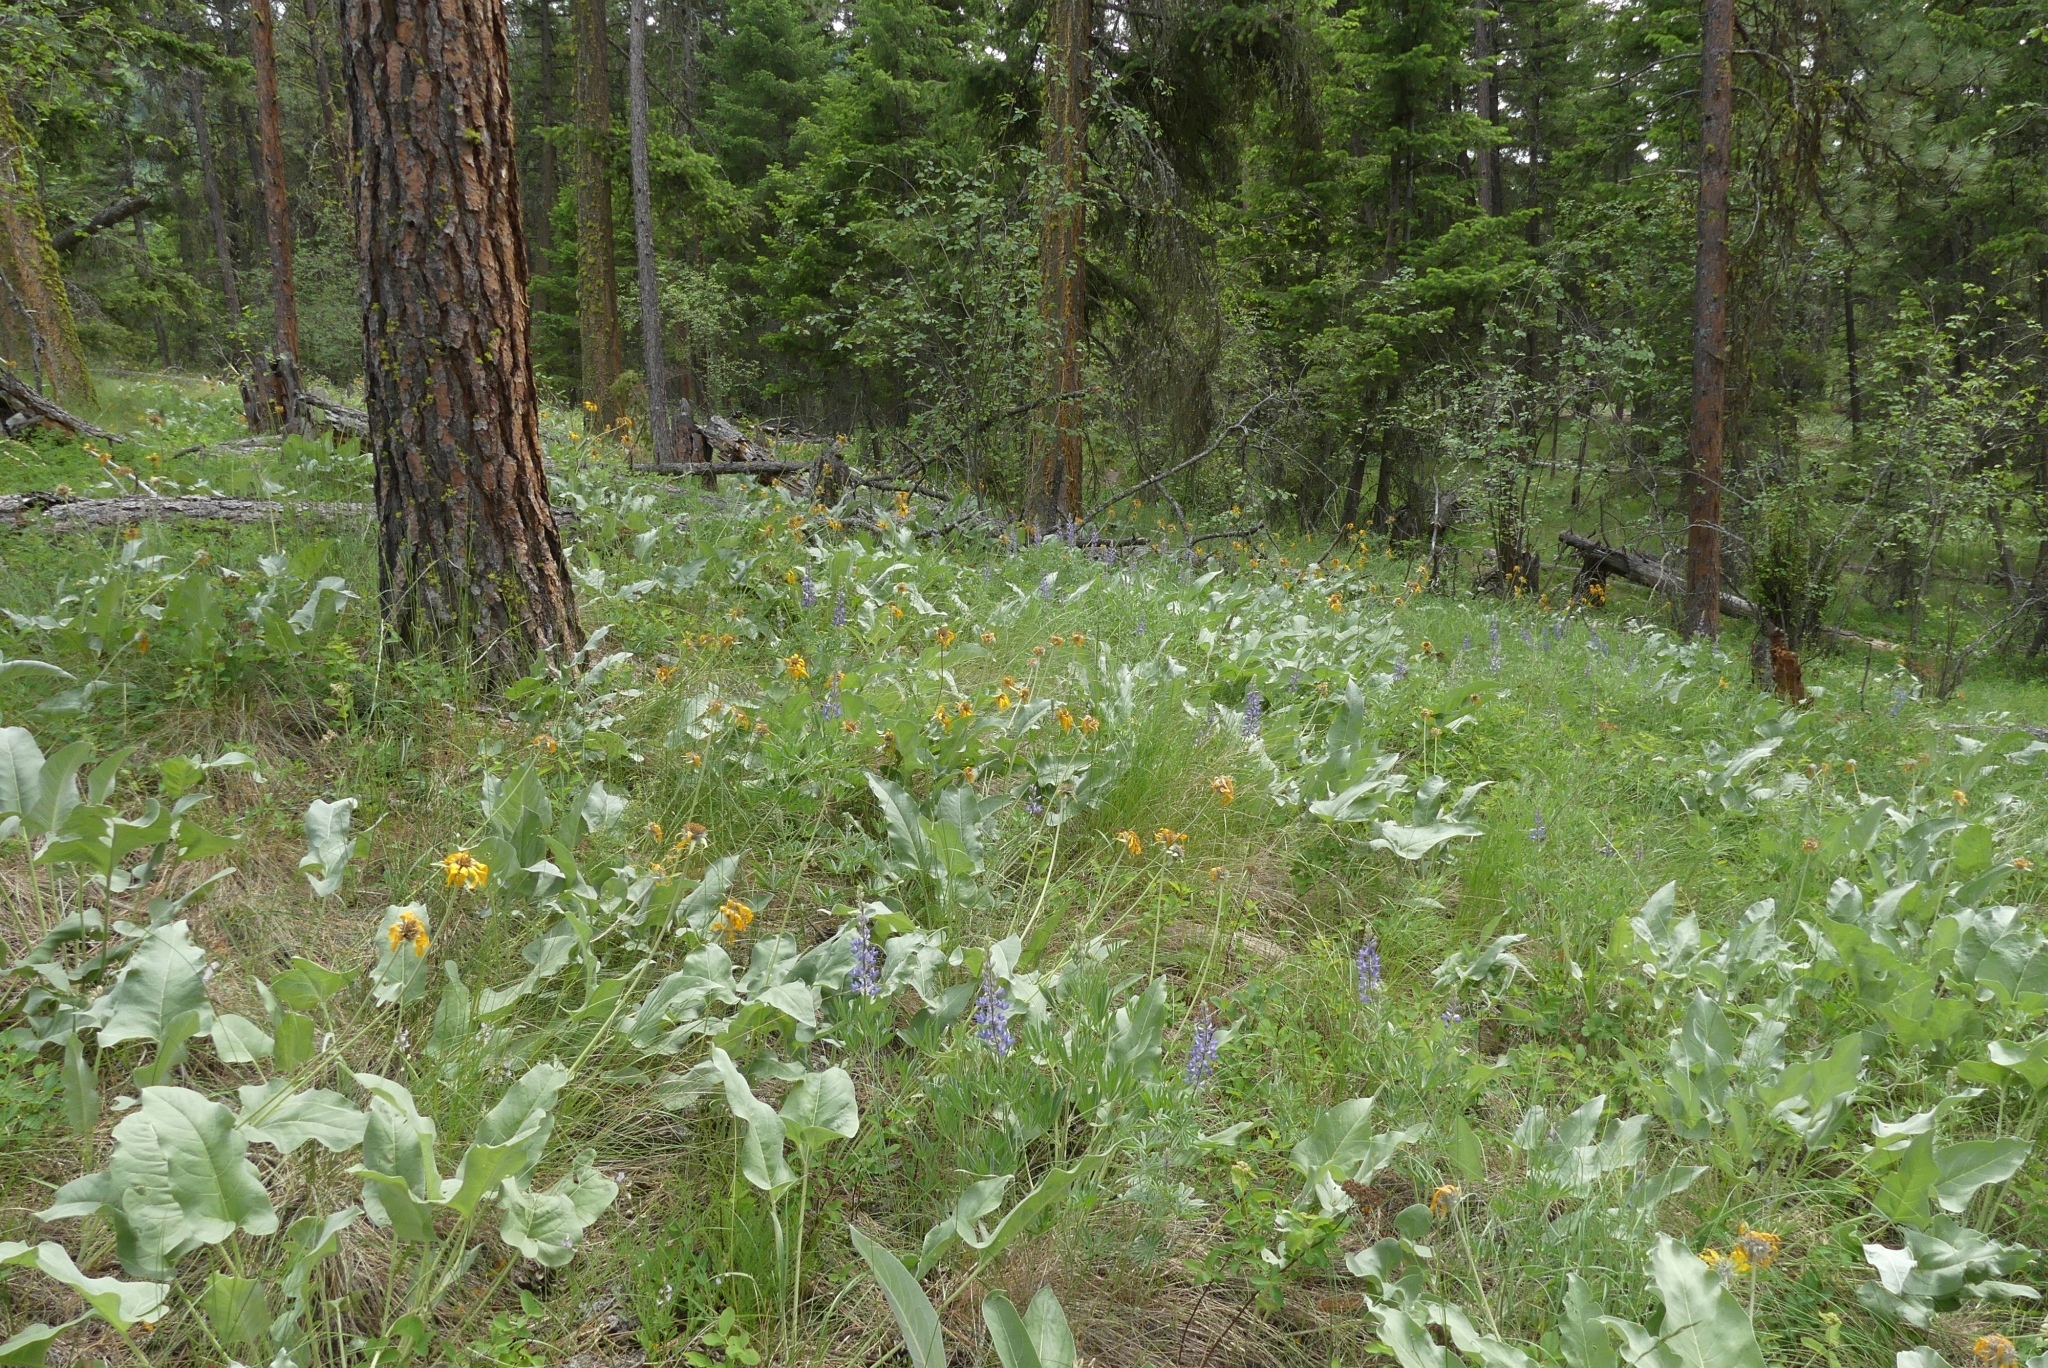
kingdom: Plantae
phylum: Tracheophyta
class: Magnoliopsida
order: Asterales
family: Asteraceae
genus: Wyethia
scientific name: Wyethia sagittata
